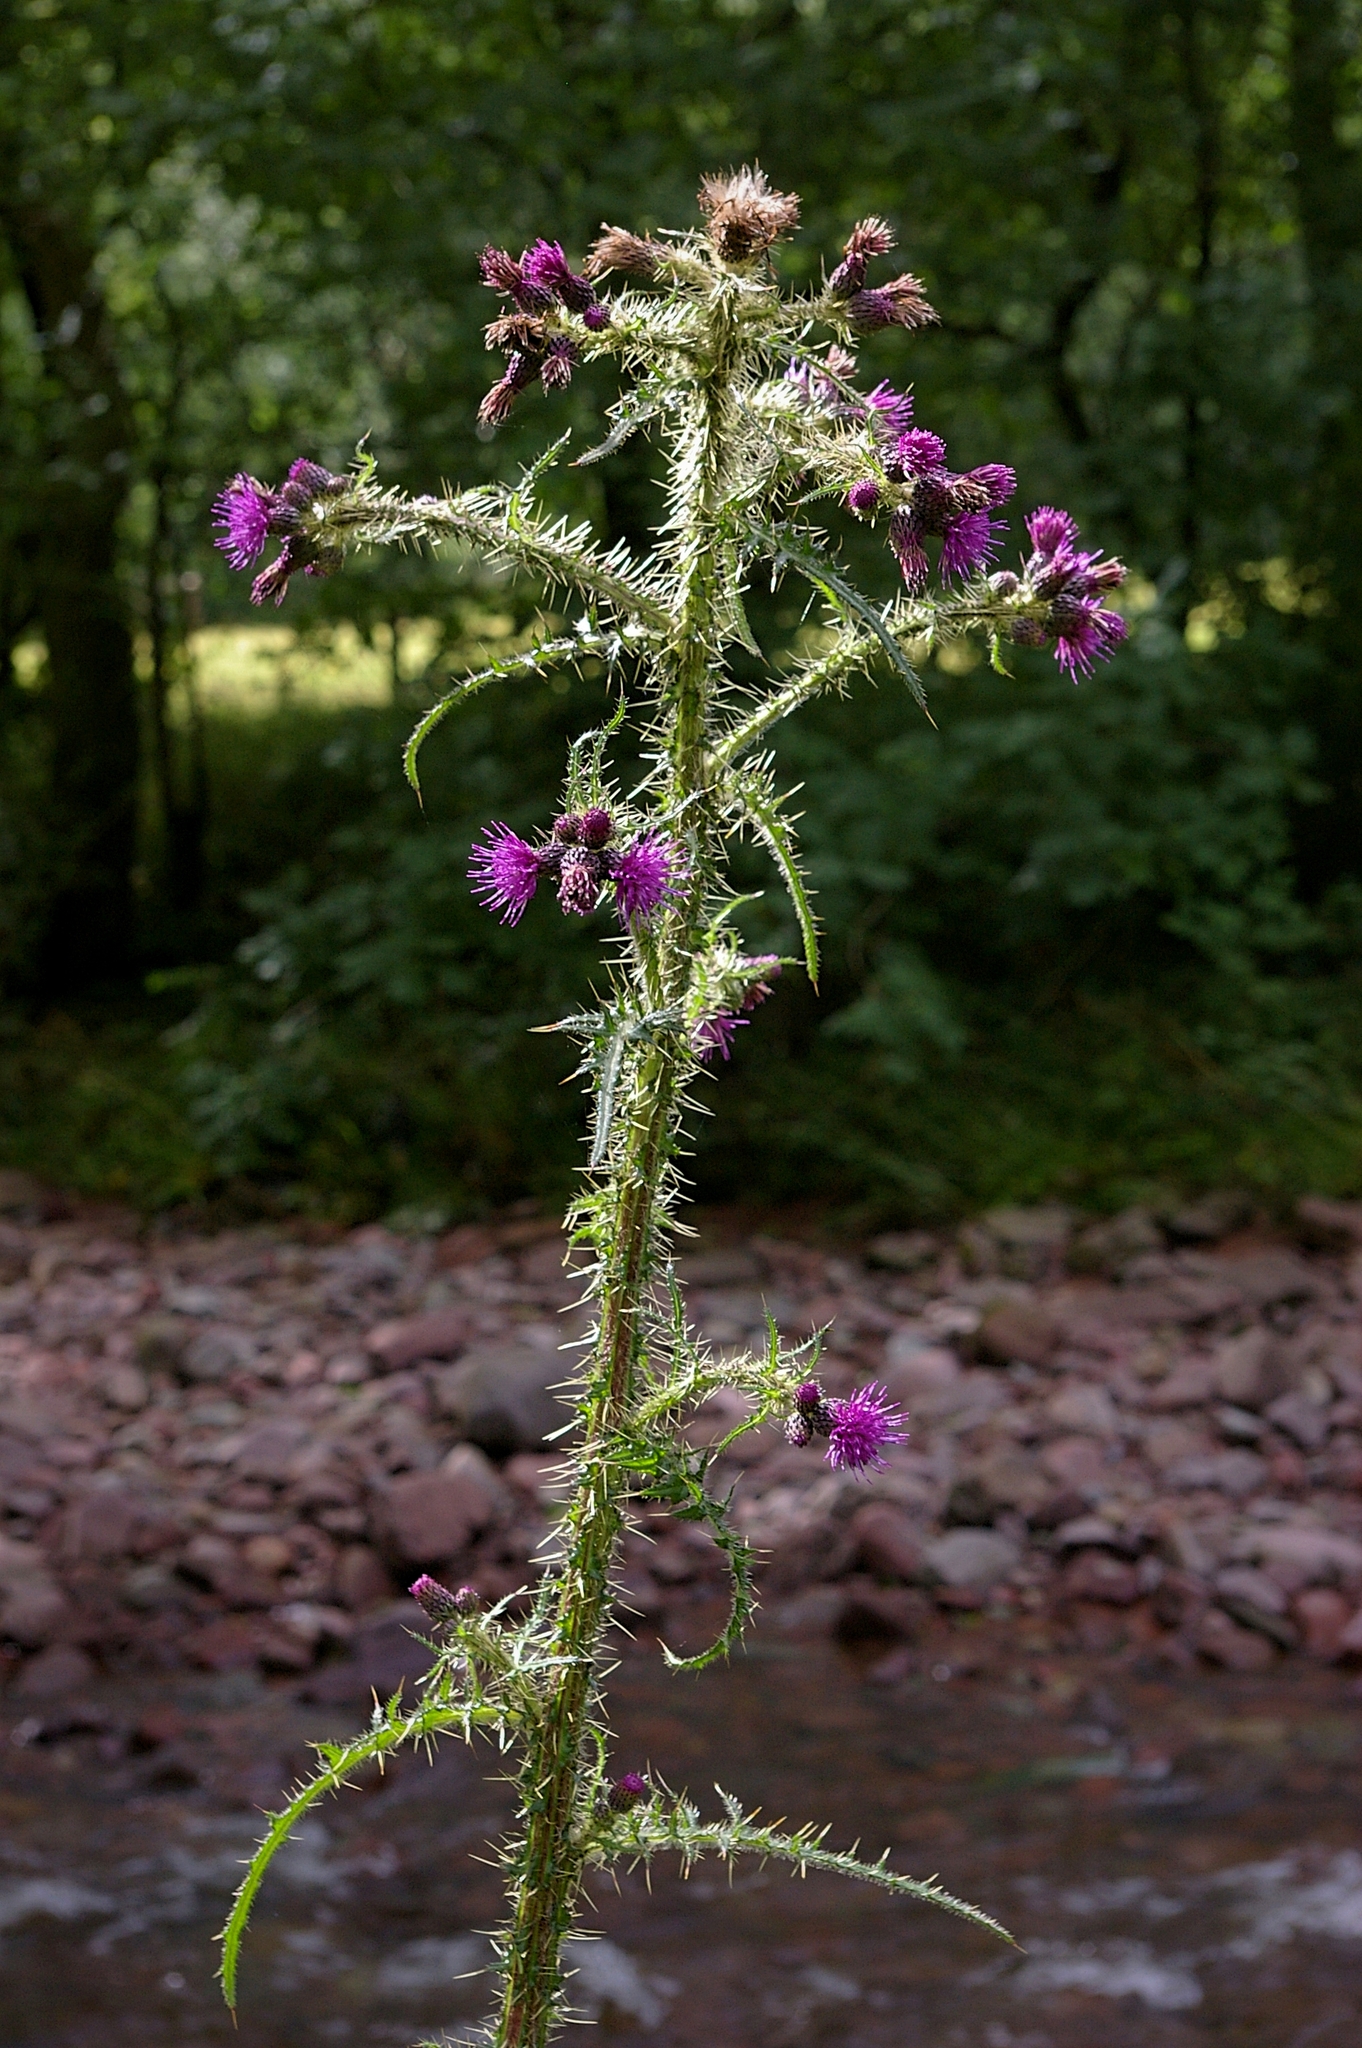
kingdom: Plantae
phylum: Tracheophyta
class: Magnoliopsida
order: Asterales
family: Asteraceae
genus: Cirsium
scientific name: Cirsium palustre
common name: Marsh thistle
